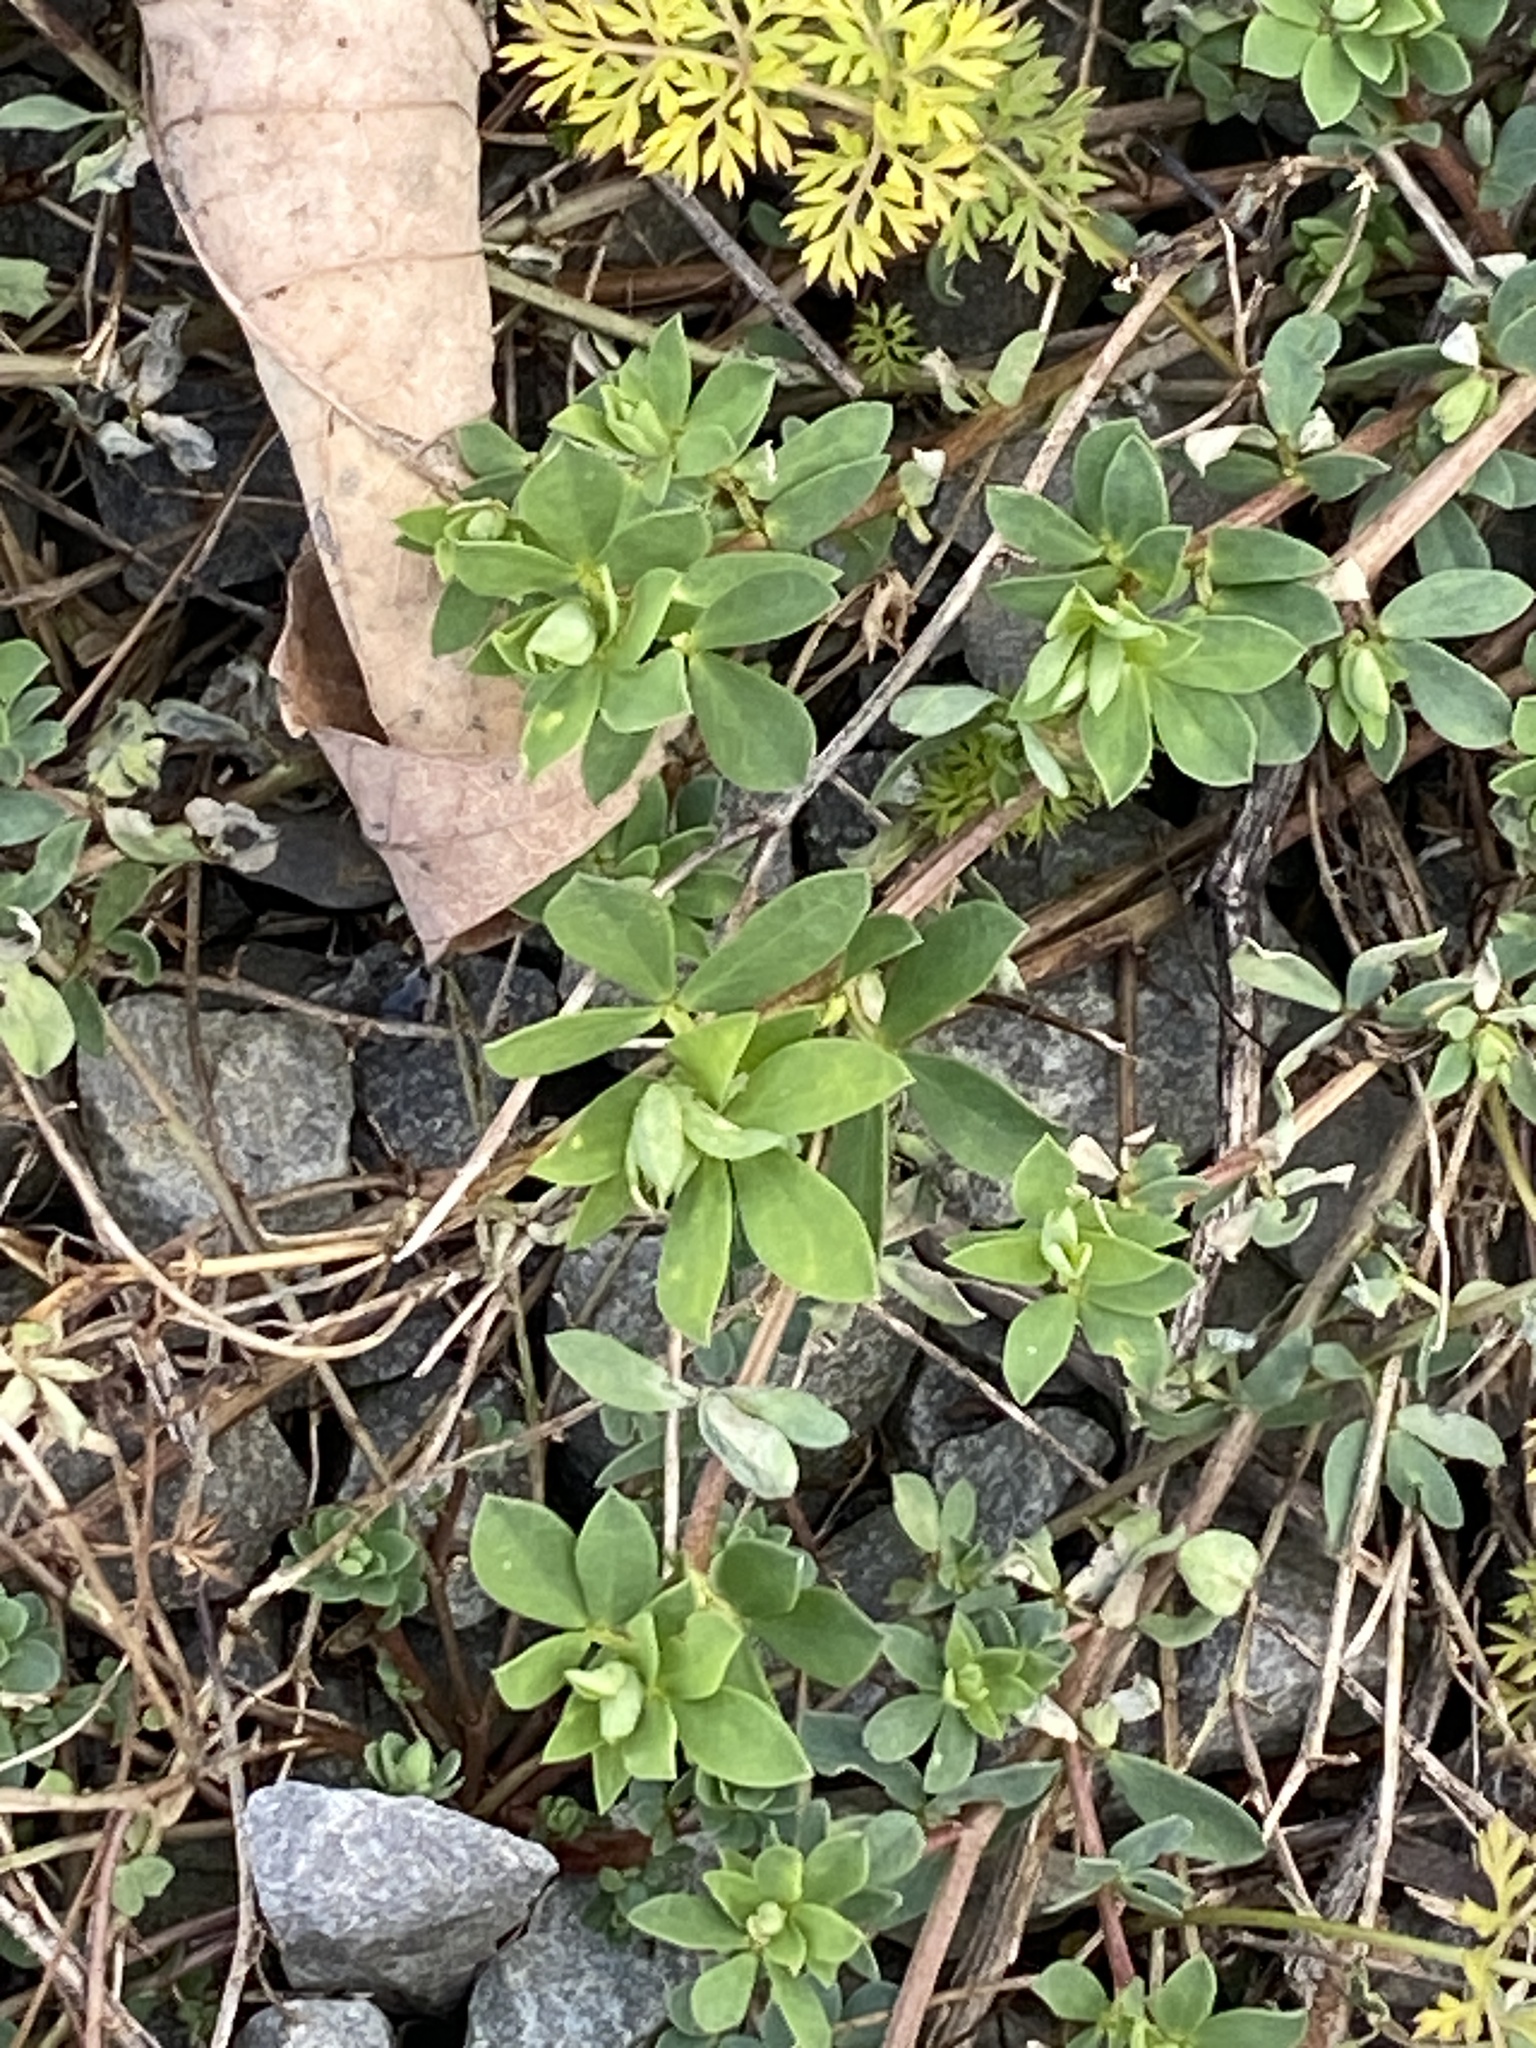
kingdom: Plantae
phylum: Tracheophyta
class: Magnoliopsida
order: Fabales
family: Fabaceae
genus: Lotus
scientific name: Lotus corniculatus
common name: Common bird's-foot-trefoil
